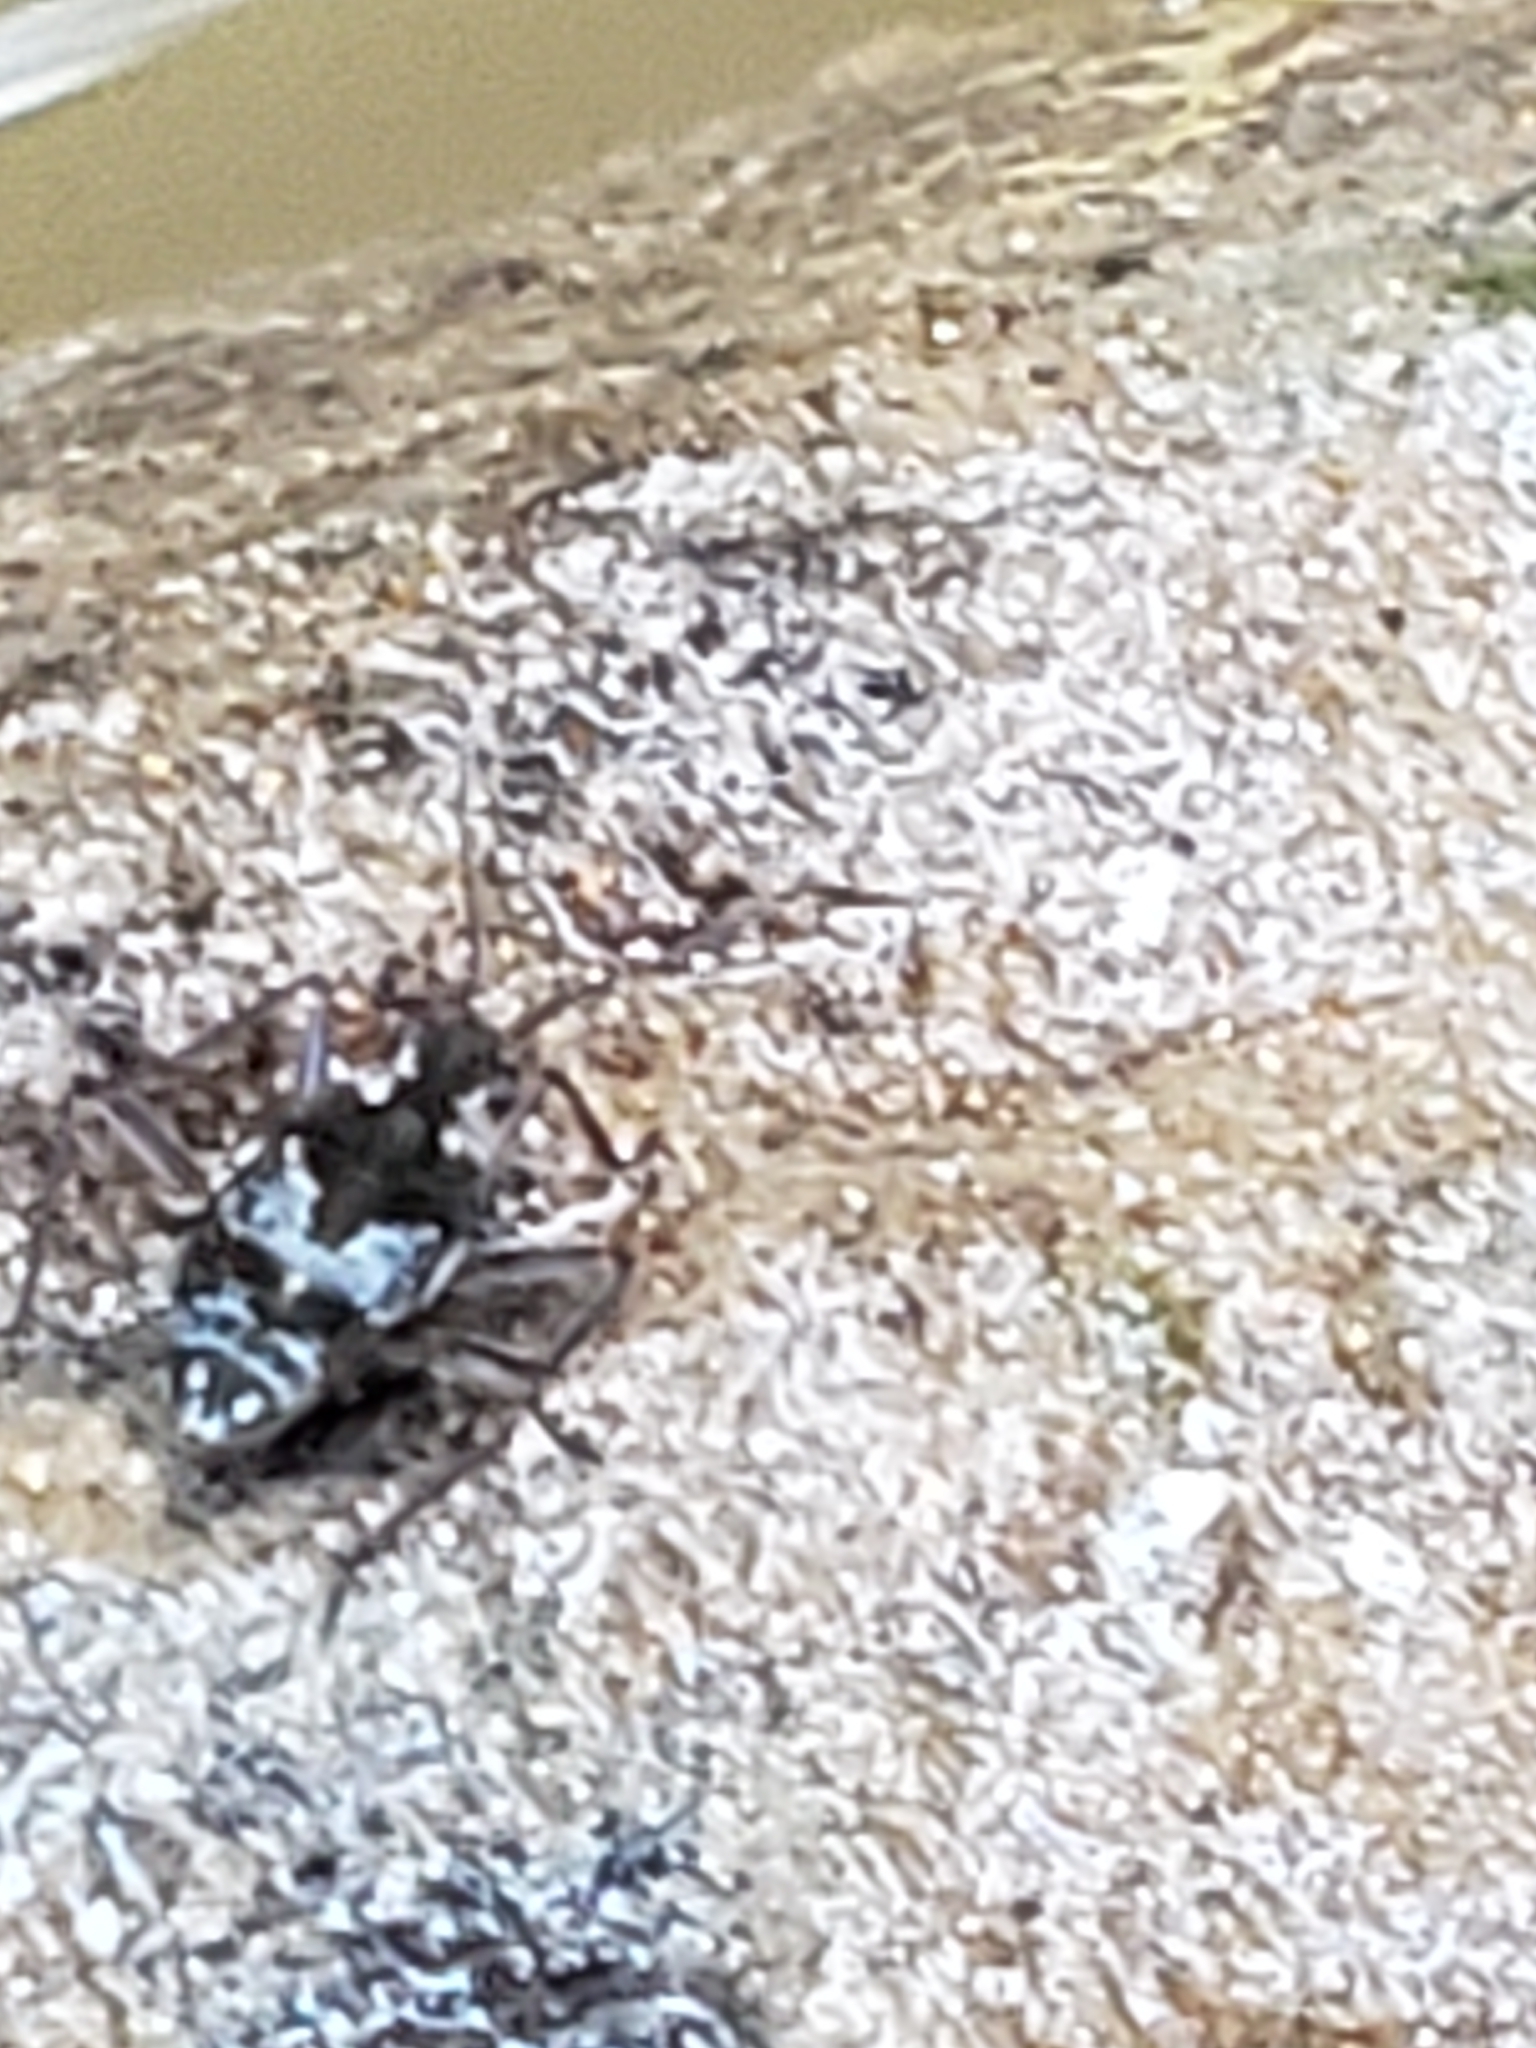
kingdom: Animalia
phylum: Arthropoda
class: Insecta
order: Hemiptera
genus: Kirkaldya
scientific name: Kirkaldya
